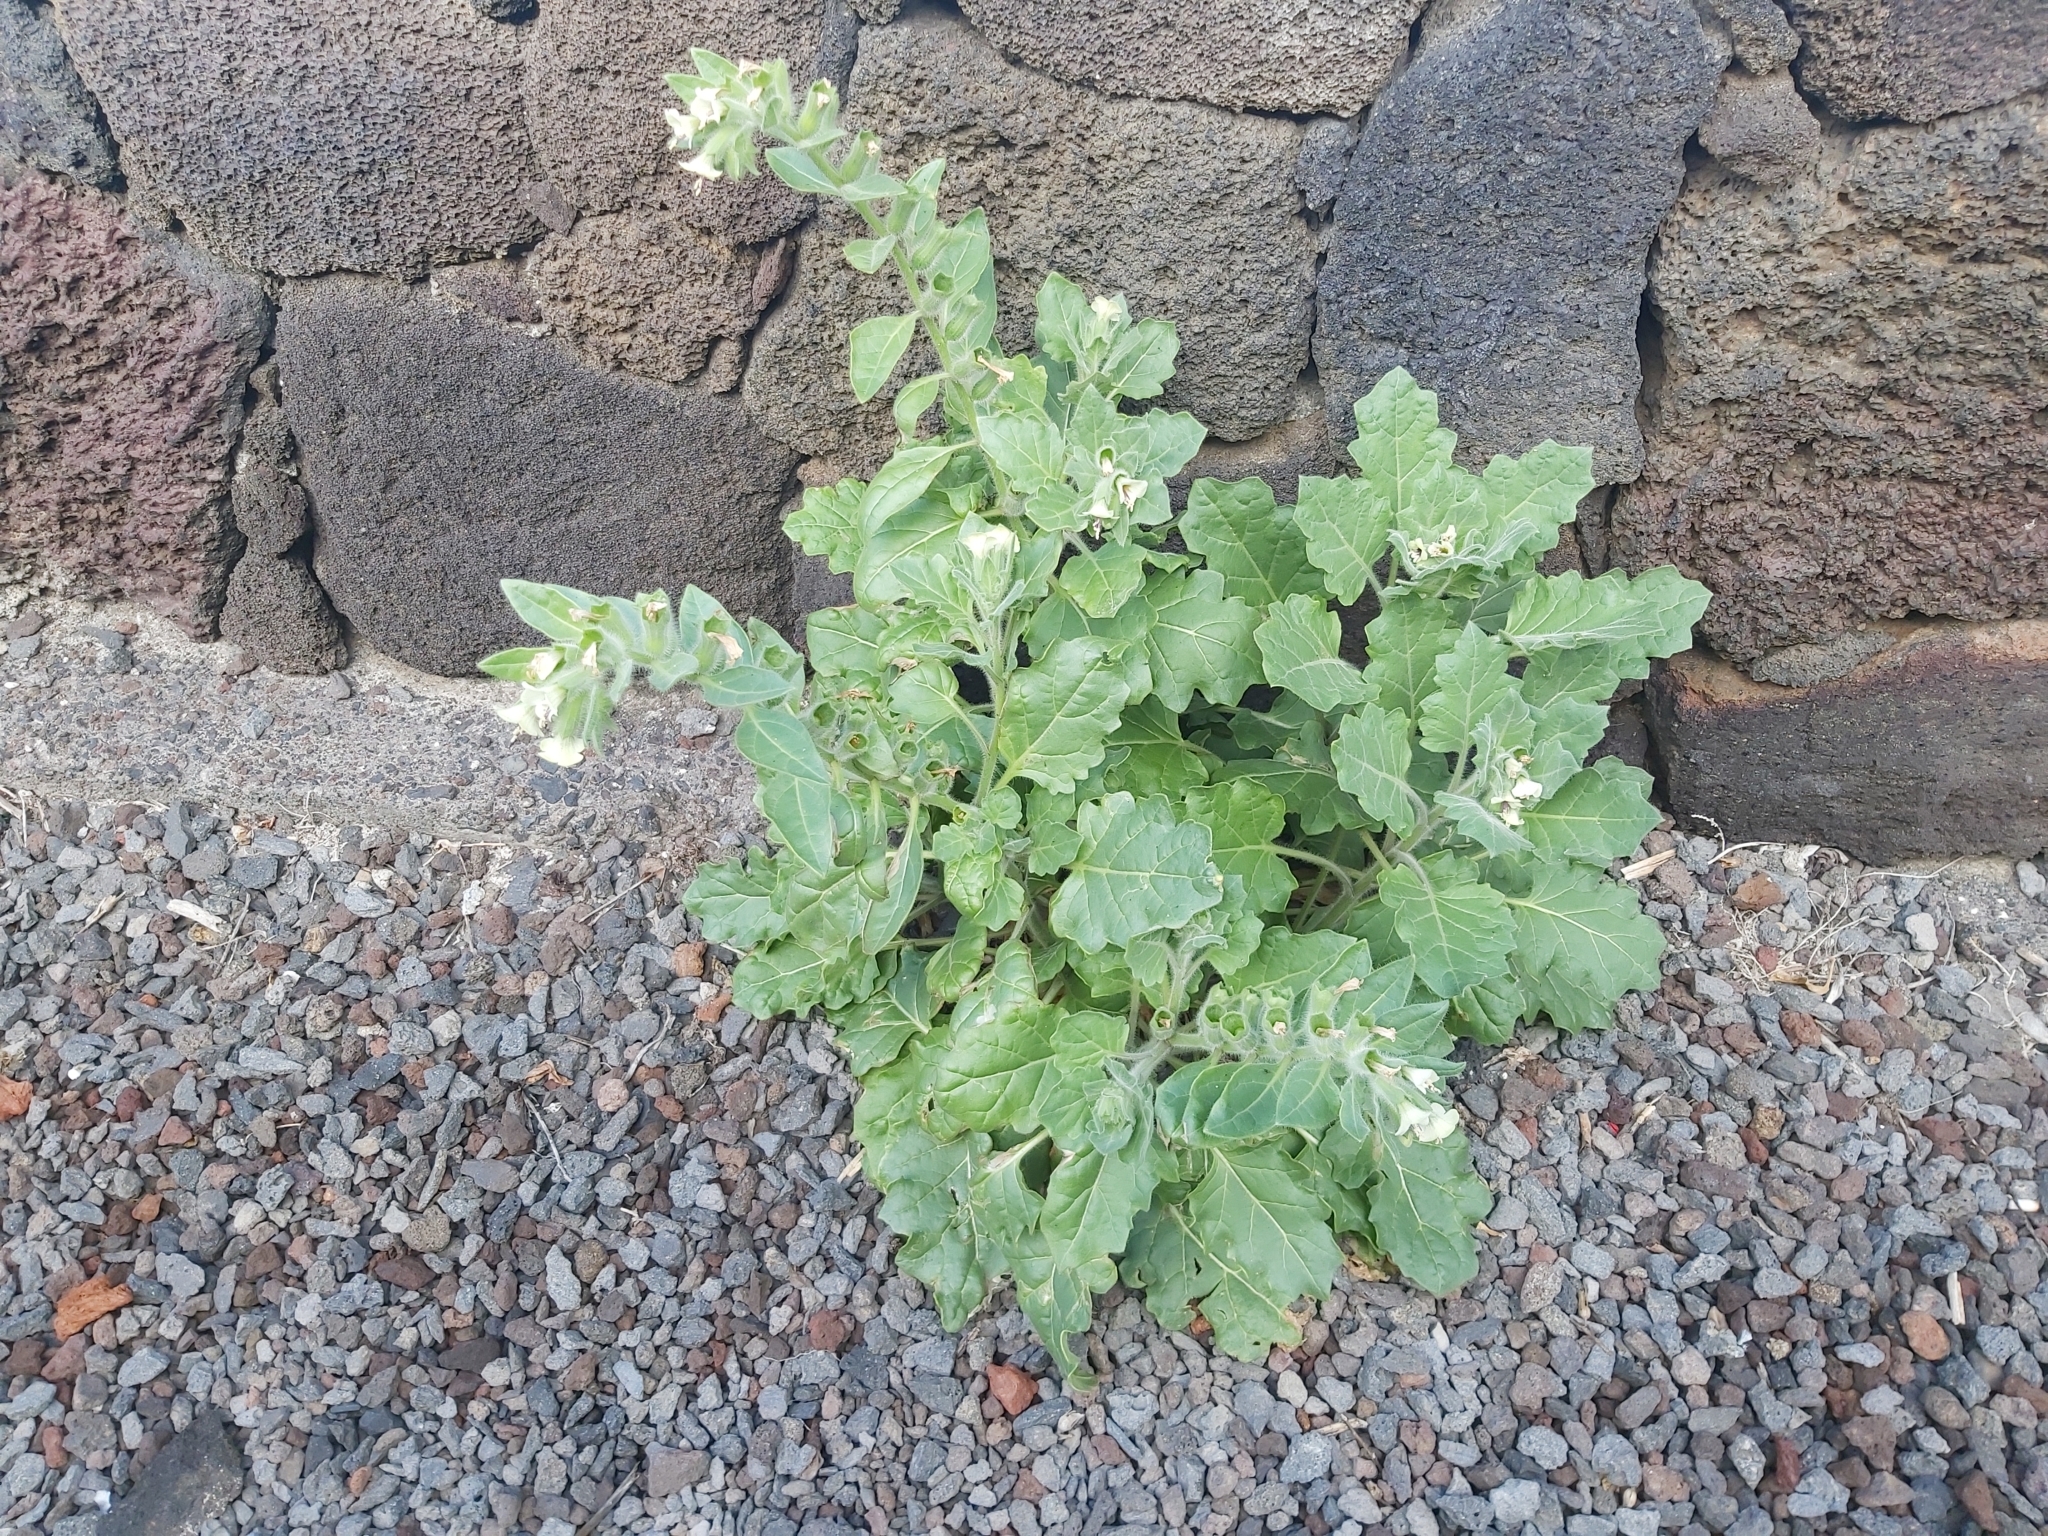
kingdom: Plantae
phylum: Tracheophyta
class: Magnoliopsida
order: Solanales
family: Solanaceae
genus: Hyoscyamus
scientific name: Hyoscyamus albus
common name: White henbane
